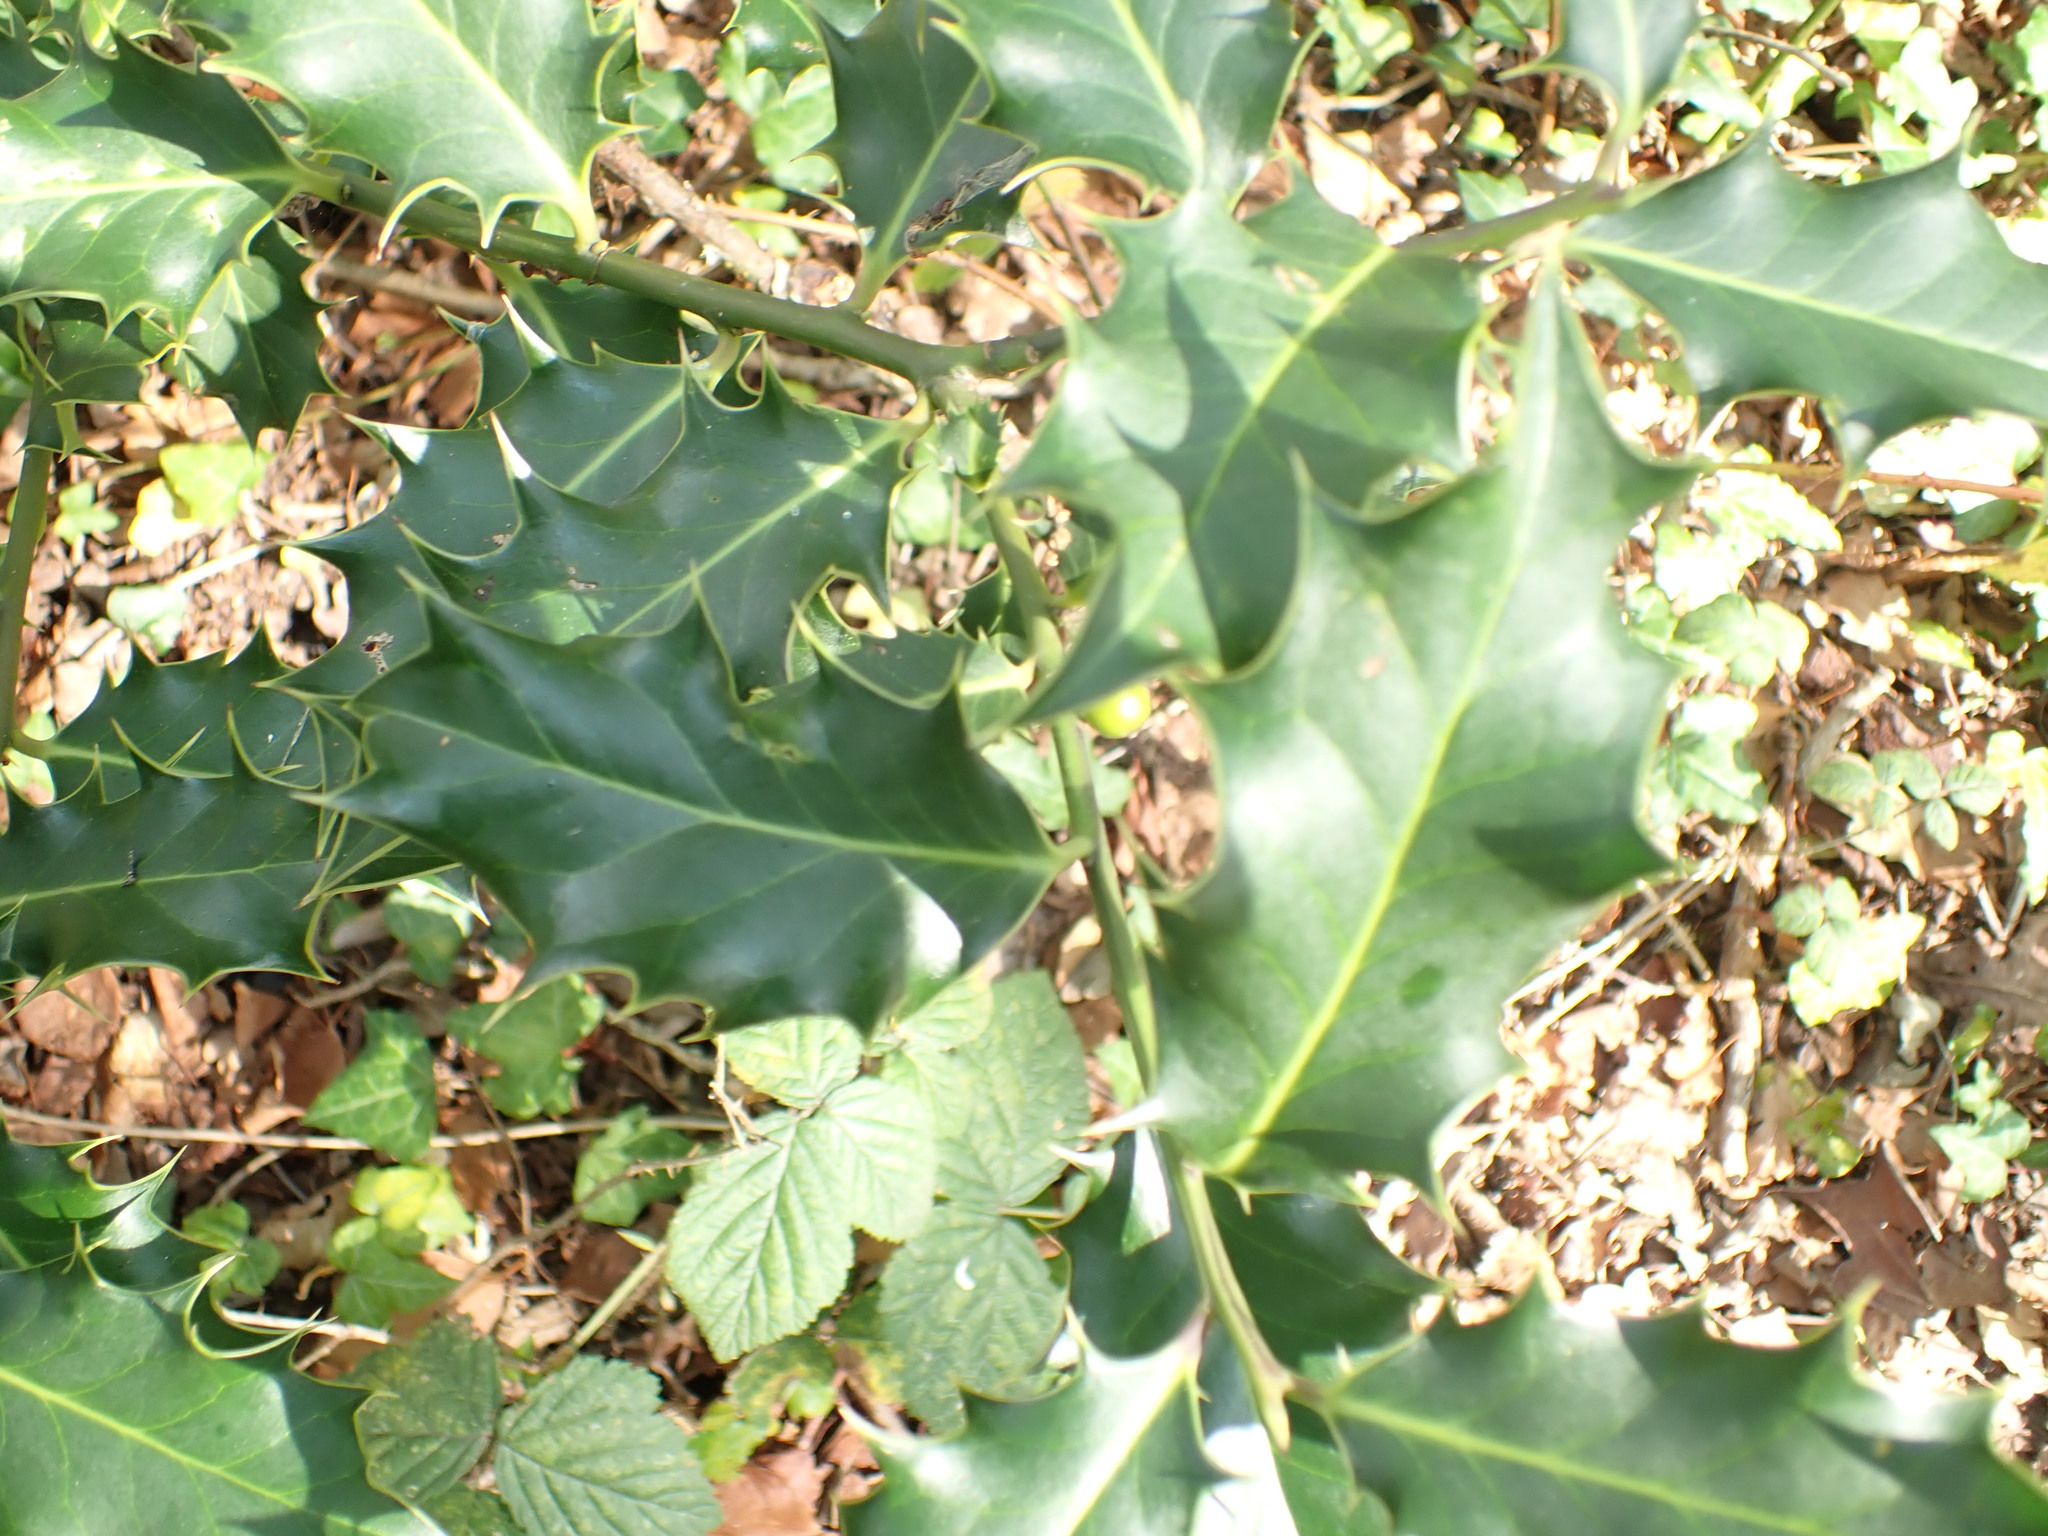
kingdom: Plantae
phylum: Tracheophyta
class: Magnoliopsida
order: Aquifoliales
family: Aquifoliaceae
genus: Ilex
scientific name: Ilex aquifolium
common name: English holly
